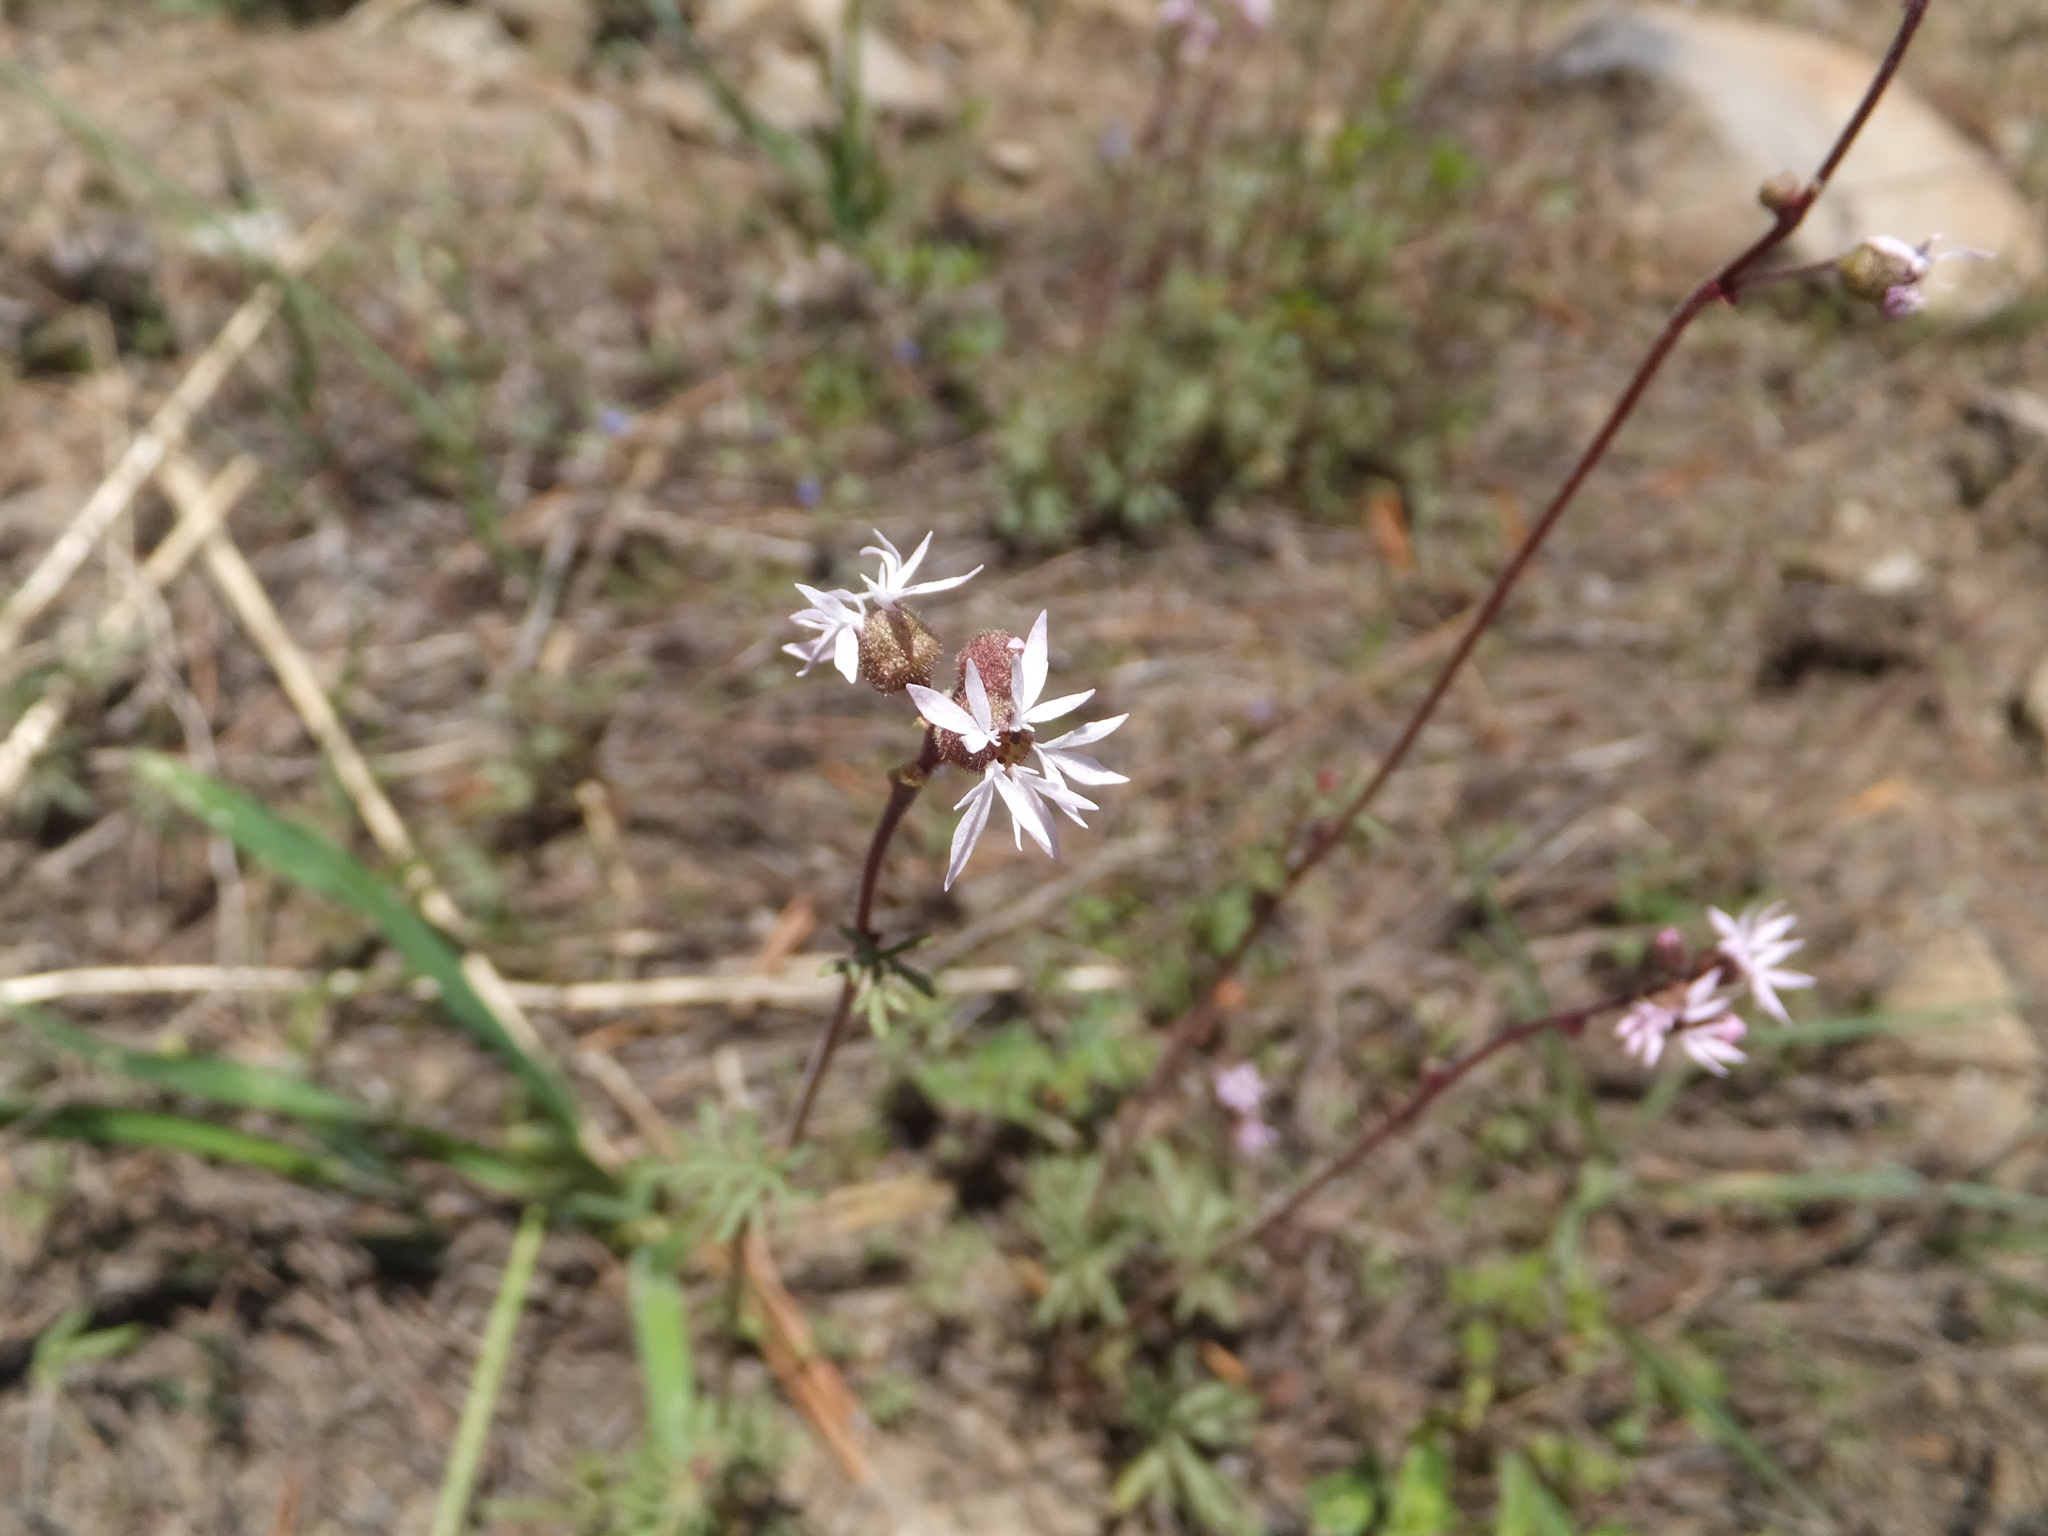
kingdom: Plantae
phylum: Tracheophyta
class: Magnoliopsida
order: Saxifragales
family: Saxifragaceae
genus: Lithophragma
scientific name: Lithophragma glabrum
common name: Bulbous prairie-star
